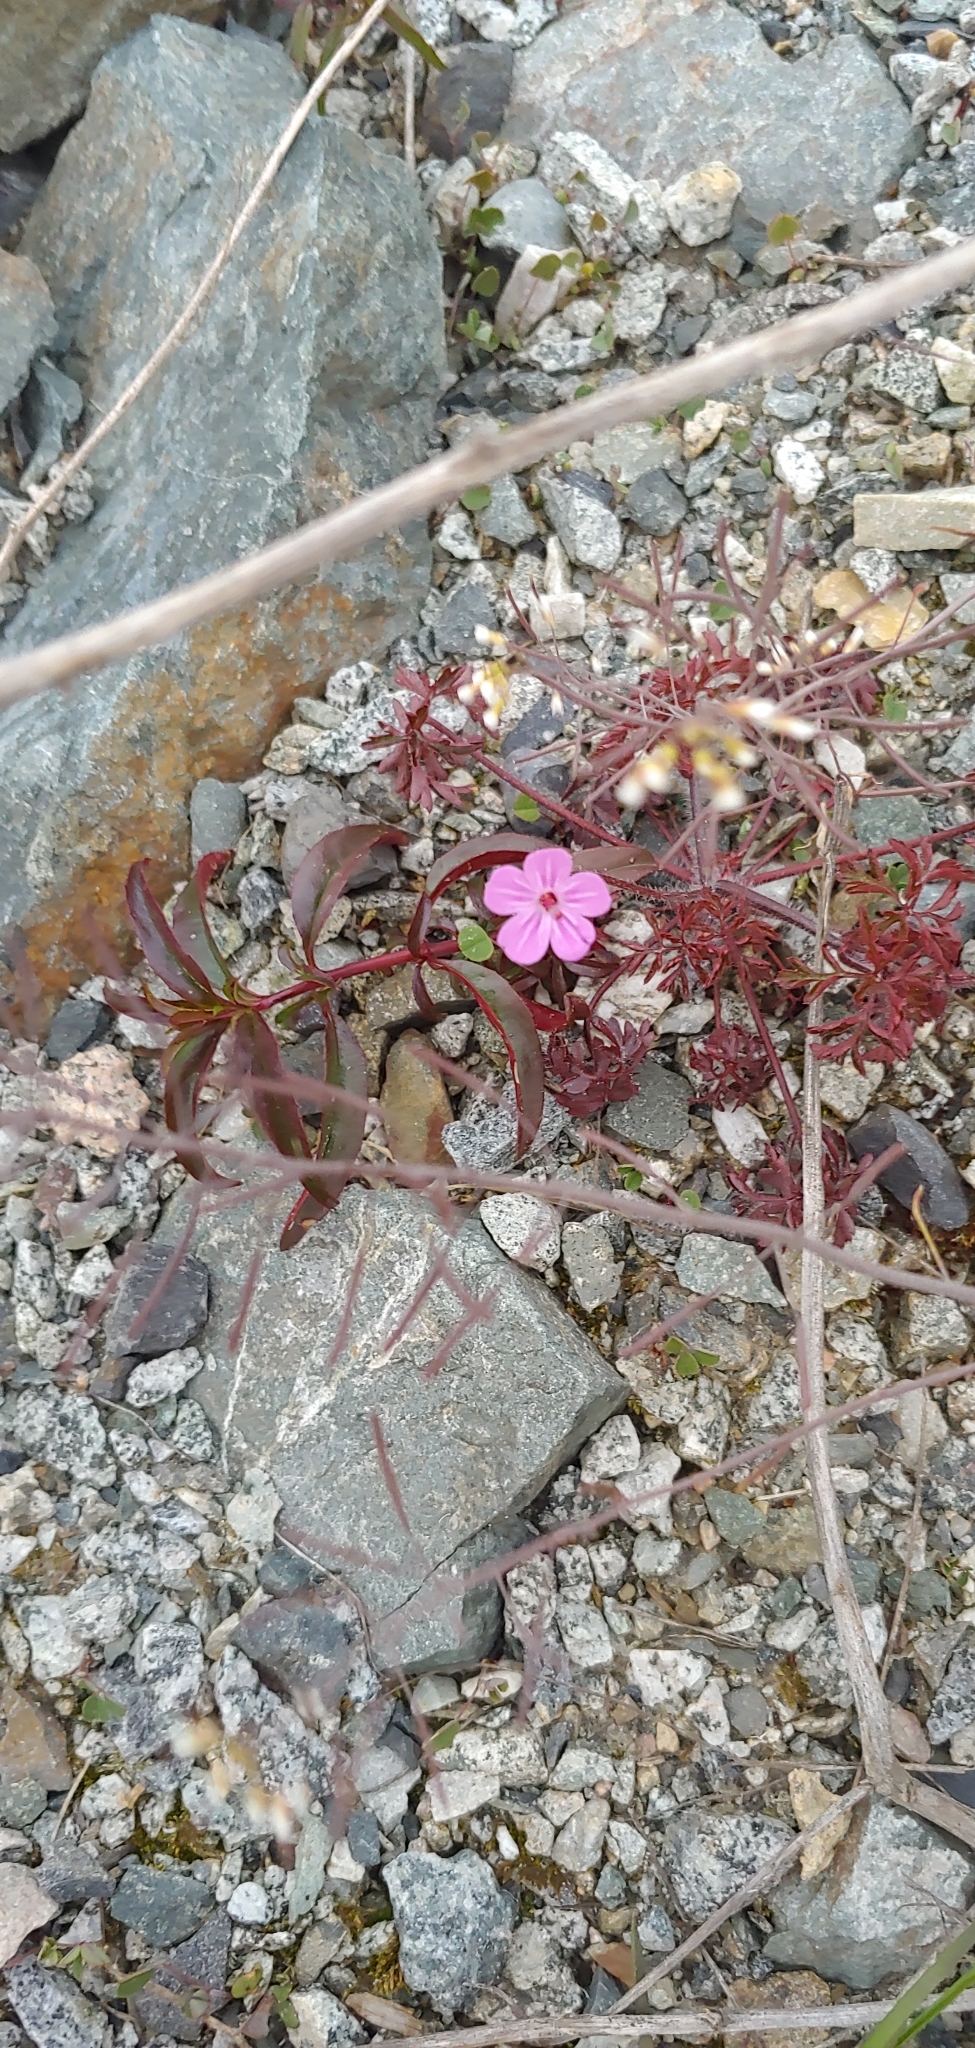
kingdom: Plantae
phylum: Tracheophyta
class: Magnoliopsida
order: Geraniales
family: Geraniaceae
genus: Geranium
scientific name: Geranium robertianum
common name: Herb-robert
